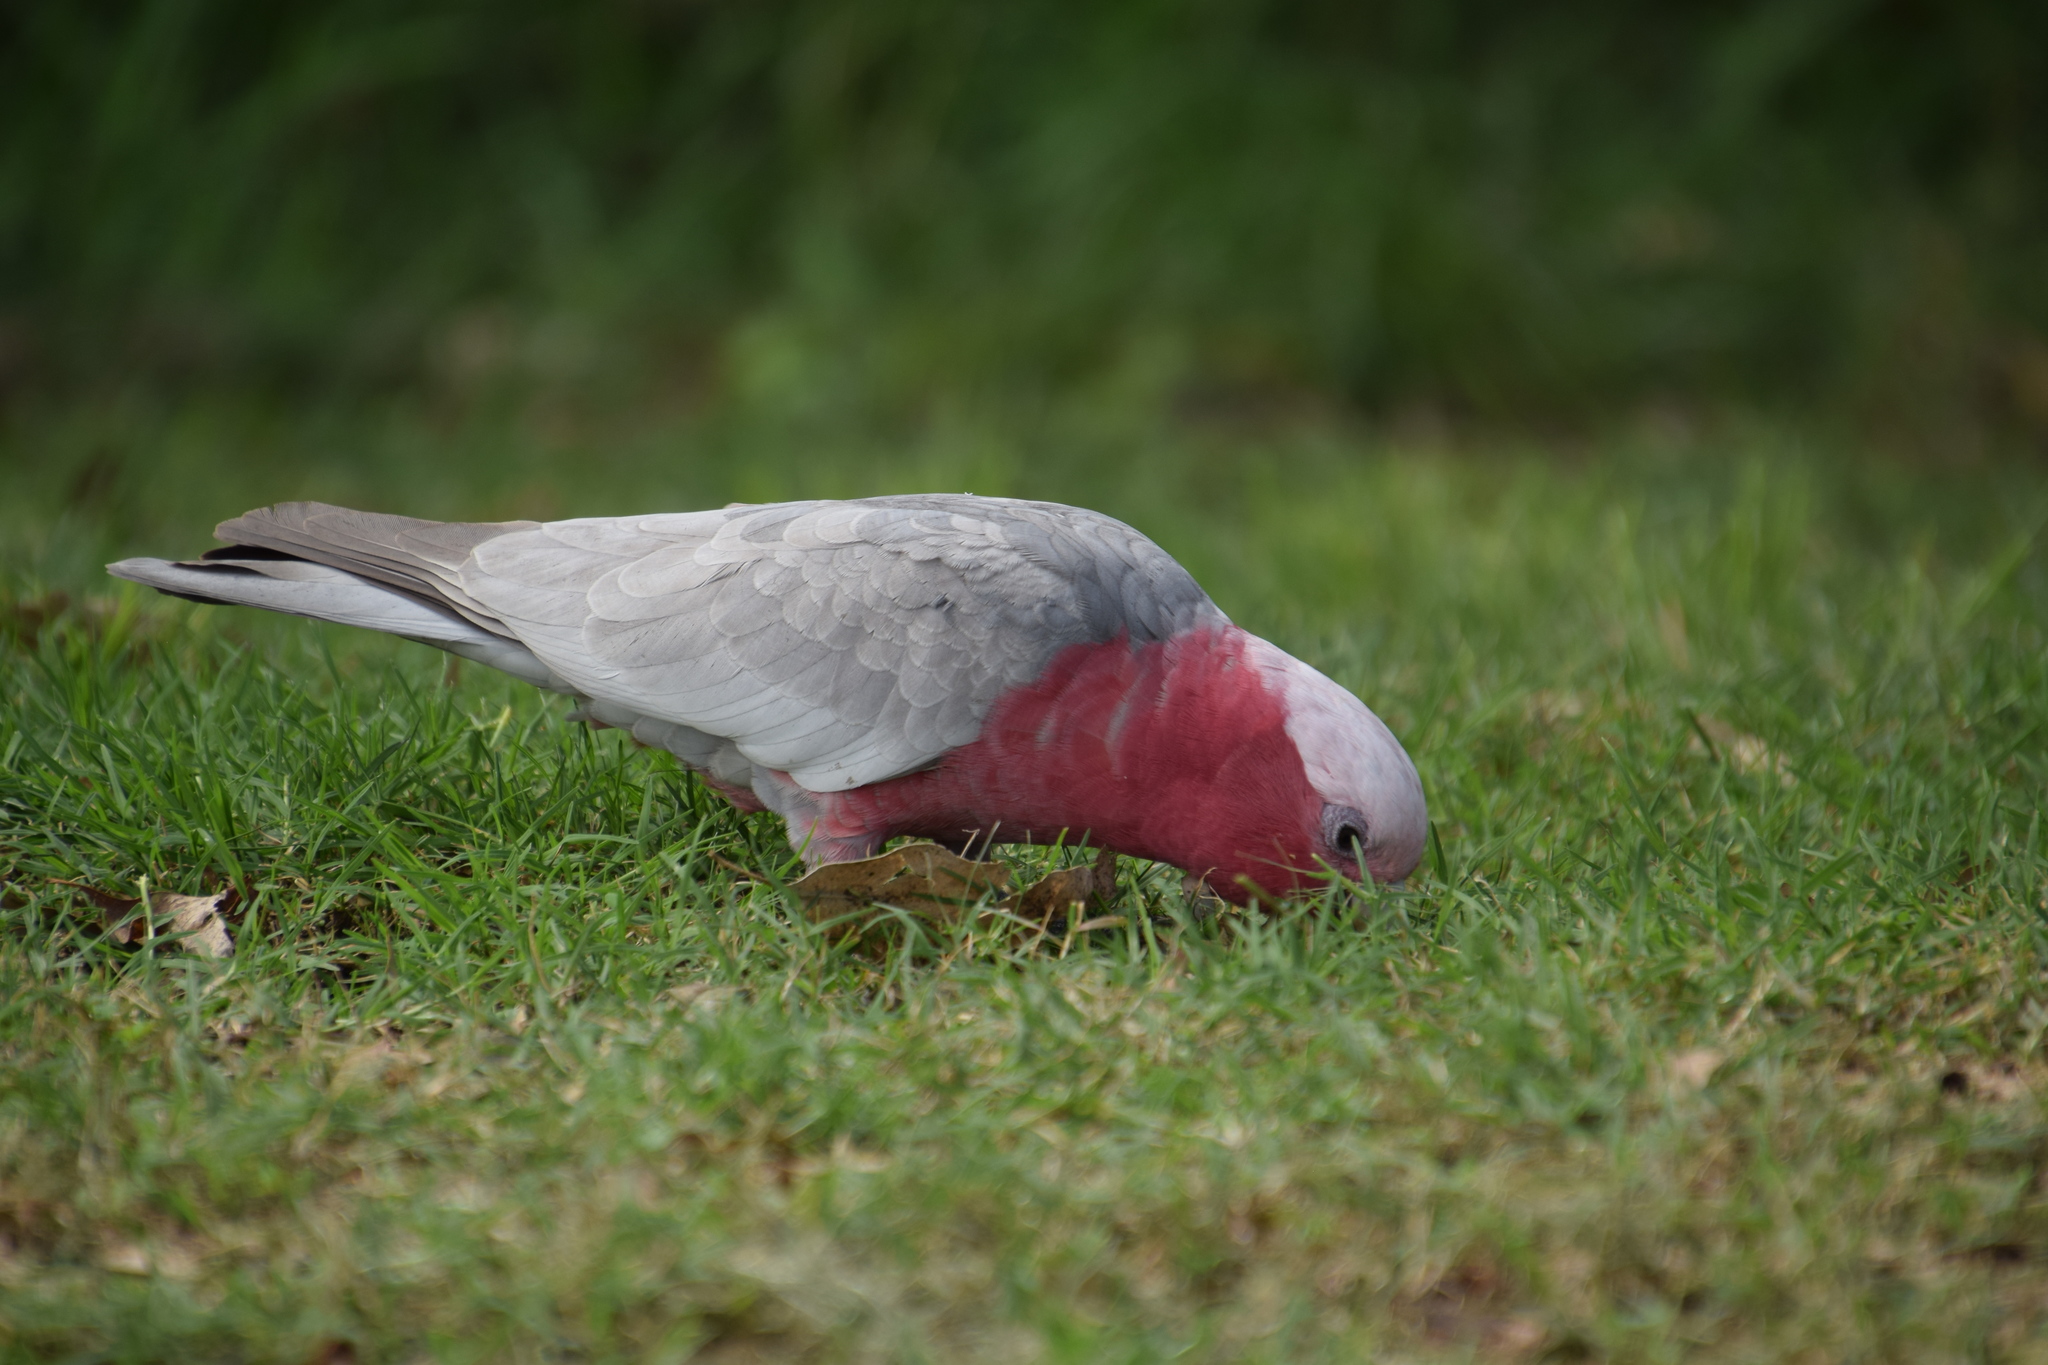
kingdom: Animalia
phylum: Chordata
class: Aves
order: Psittaciformes
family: Psittacidae
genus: Eolophus
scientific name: Eolophus roseicapilla
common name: Galah
